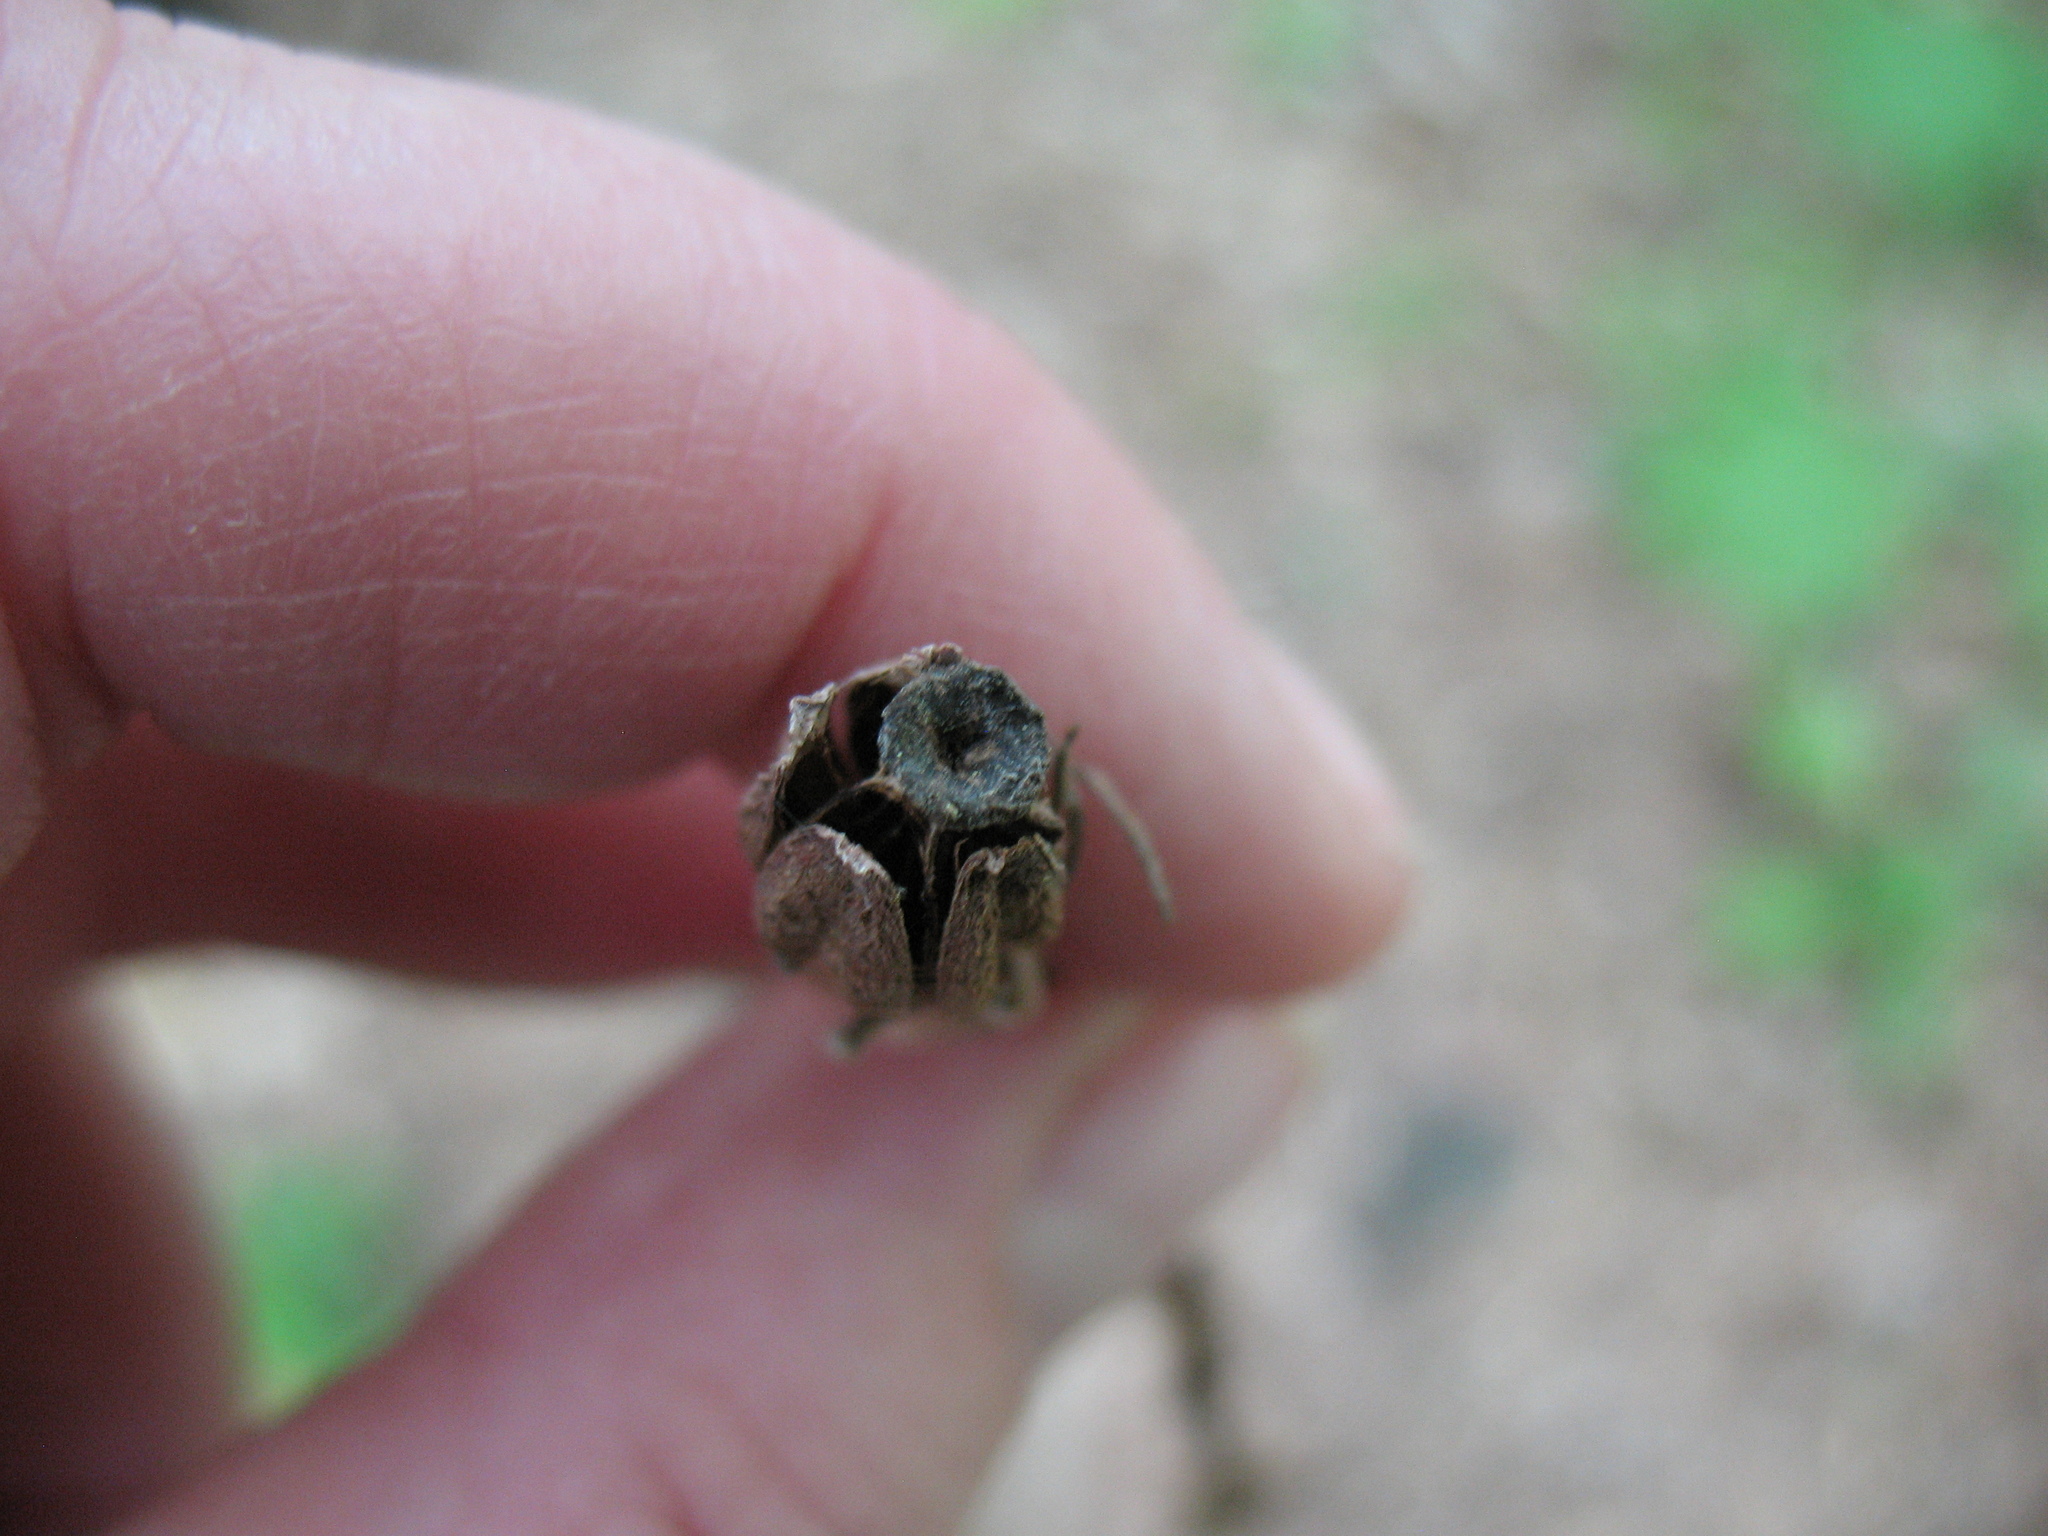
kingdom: Plantae
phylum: Tracheophyta
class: Magnoliopsida
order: Ericales
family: Ericaceae
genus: Monotropa
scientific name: Monotropa uniflora
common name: Convulsion root
